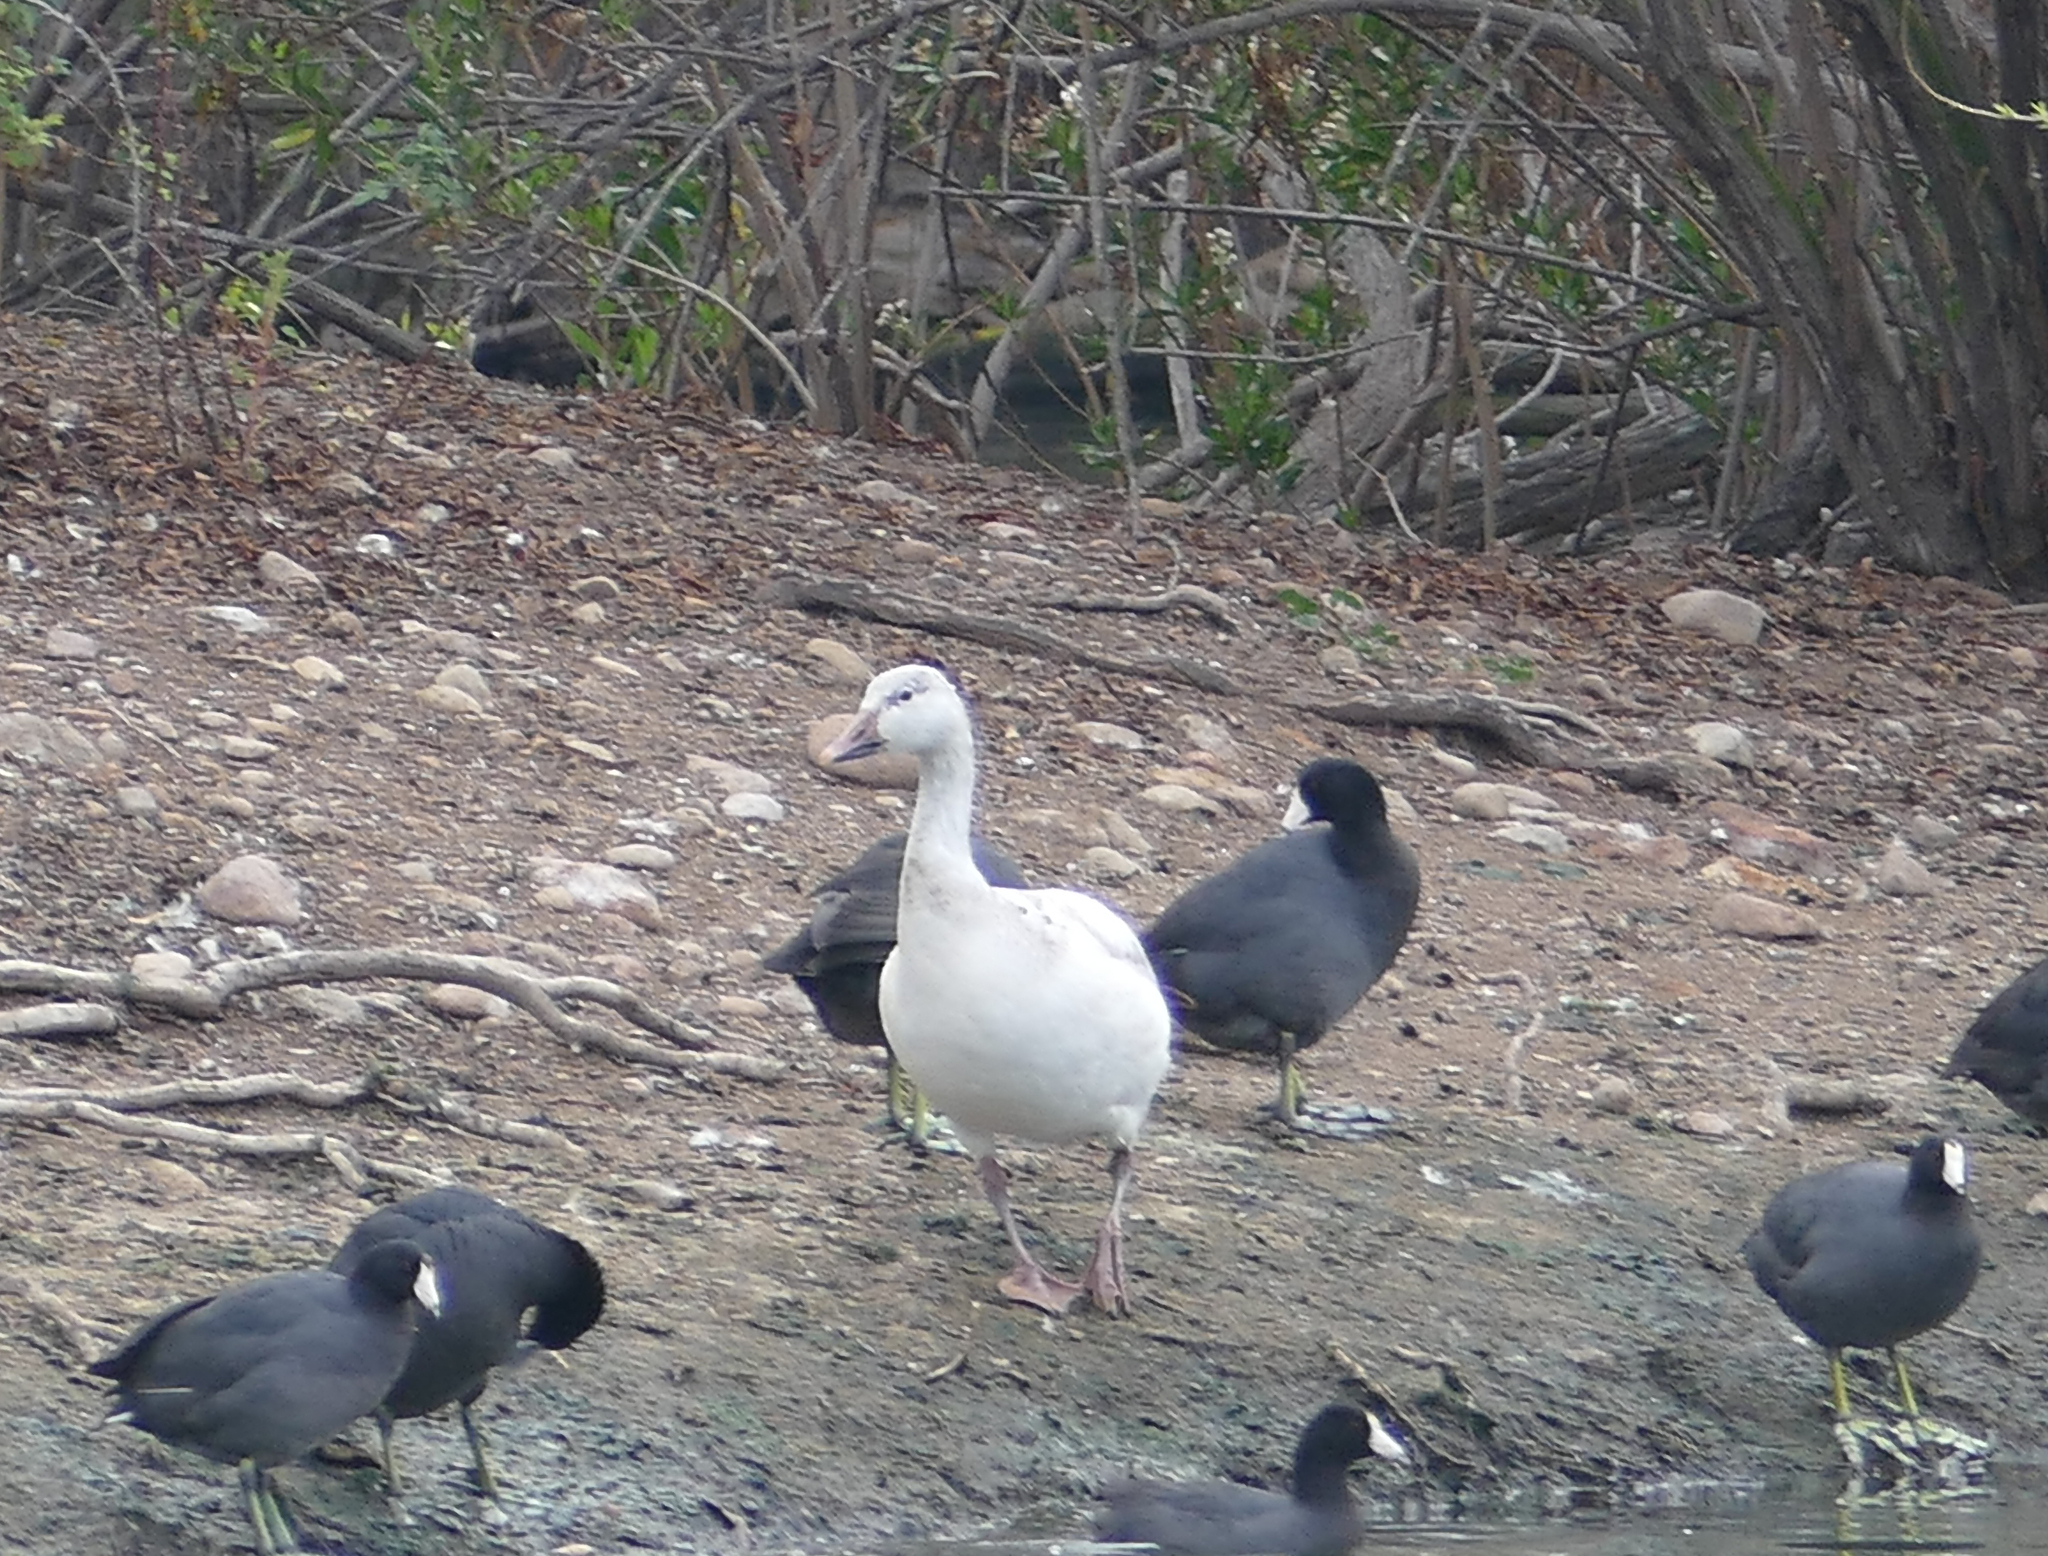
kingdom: Animalia
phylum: Chordata
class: Aves
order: Gruiformes
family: Rallidae
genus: Fulica
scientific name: Fulica americana
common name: American coot
